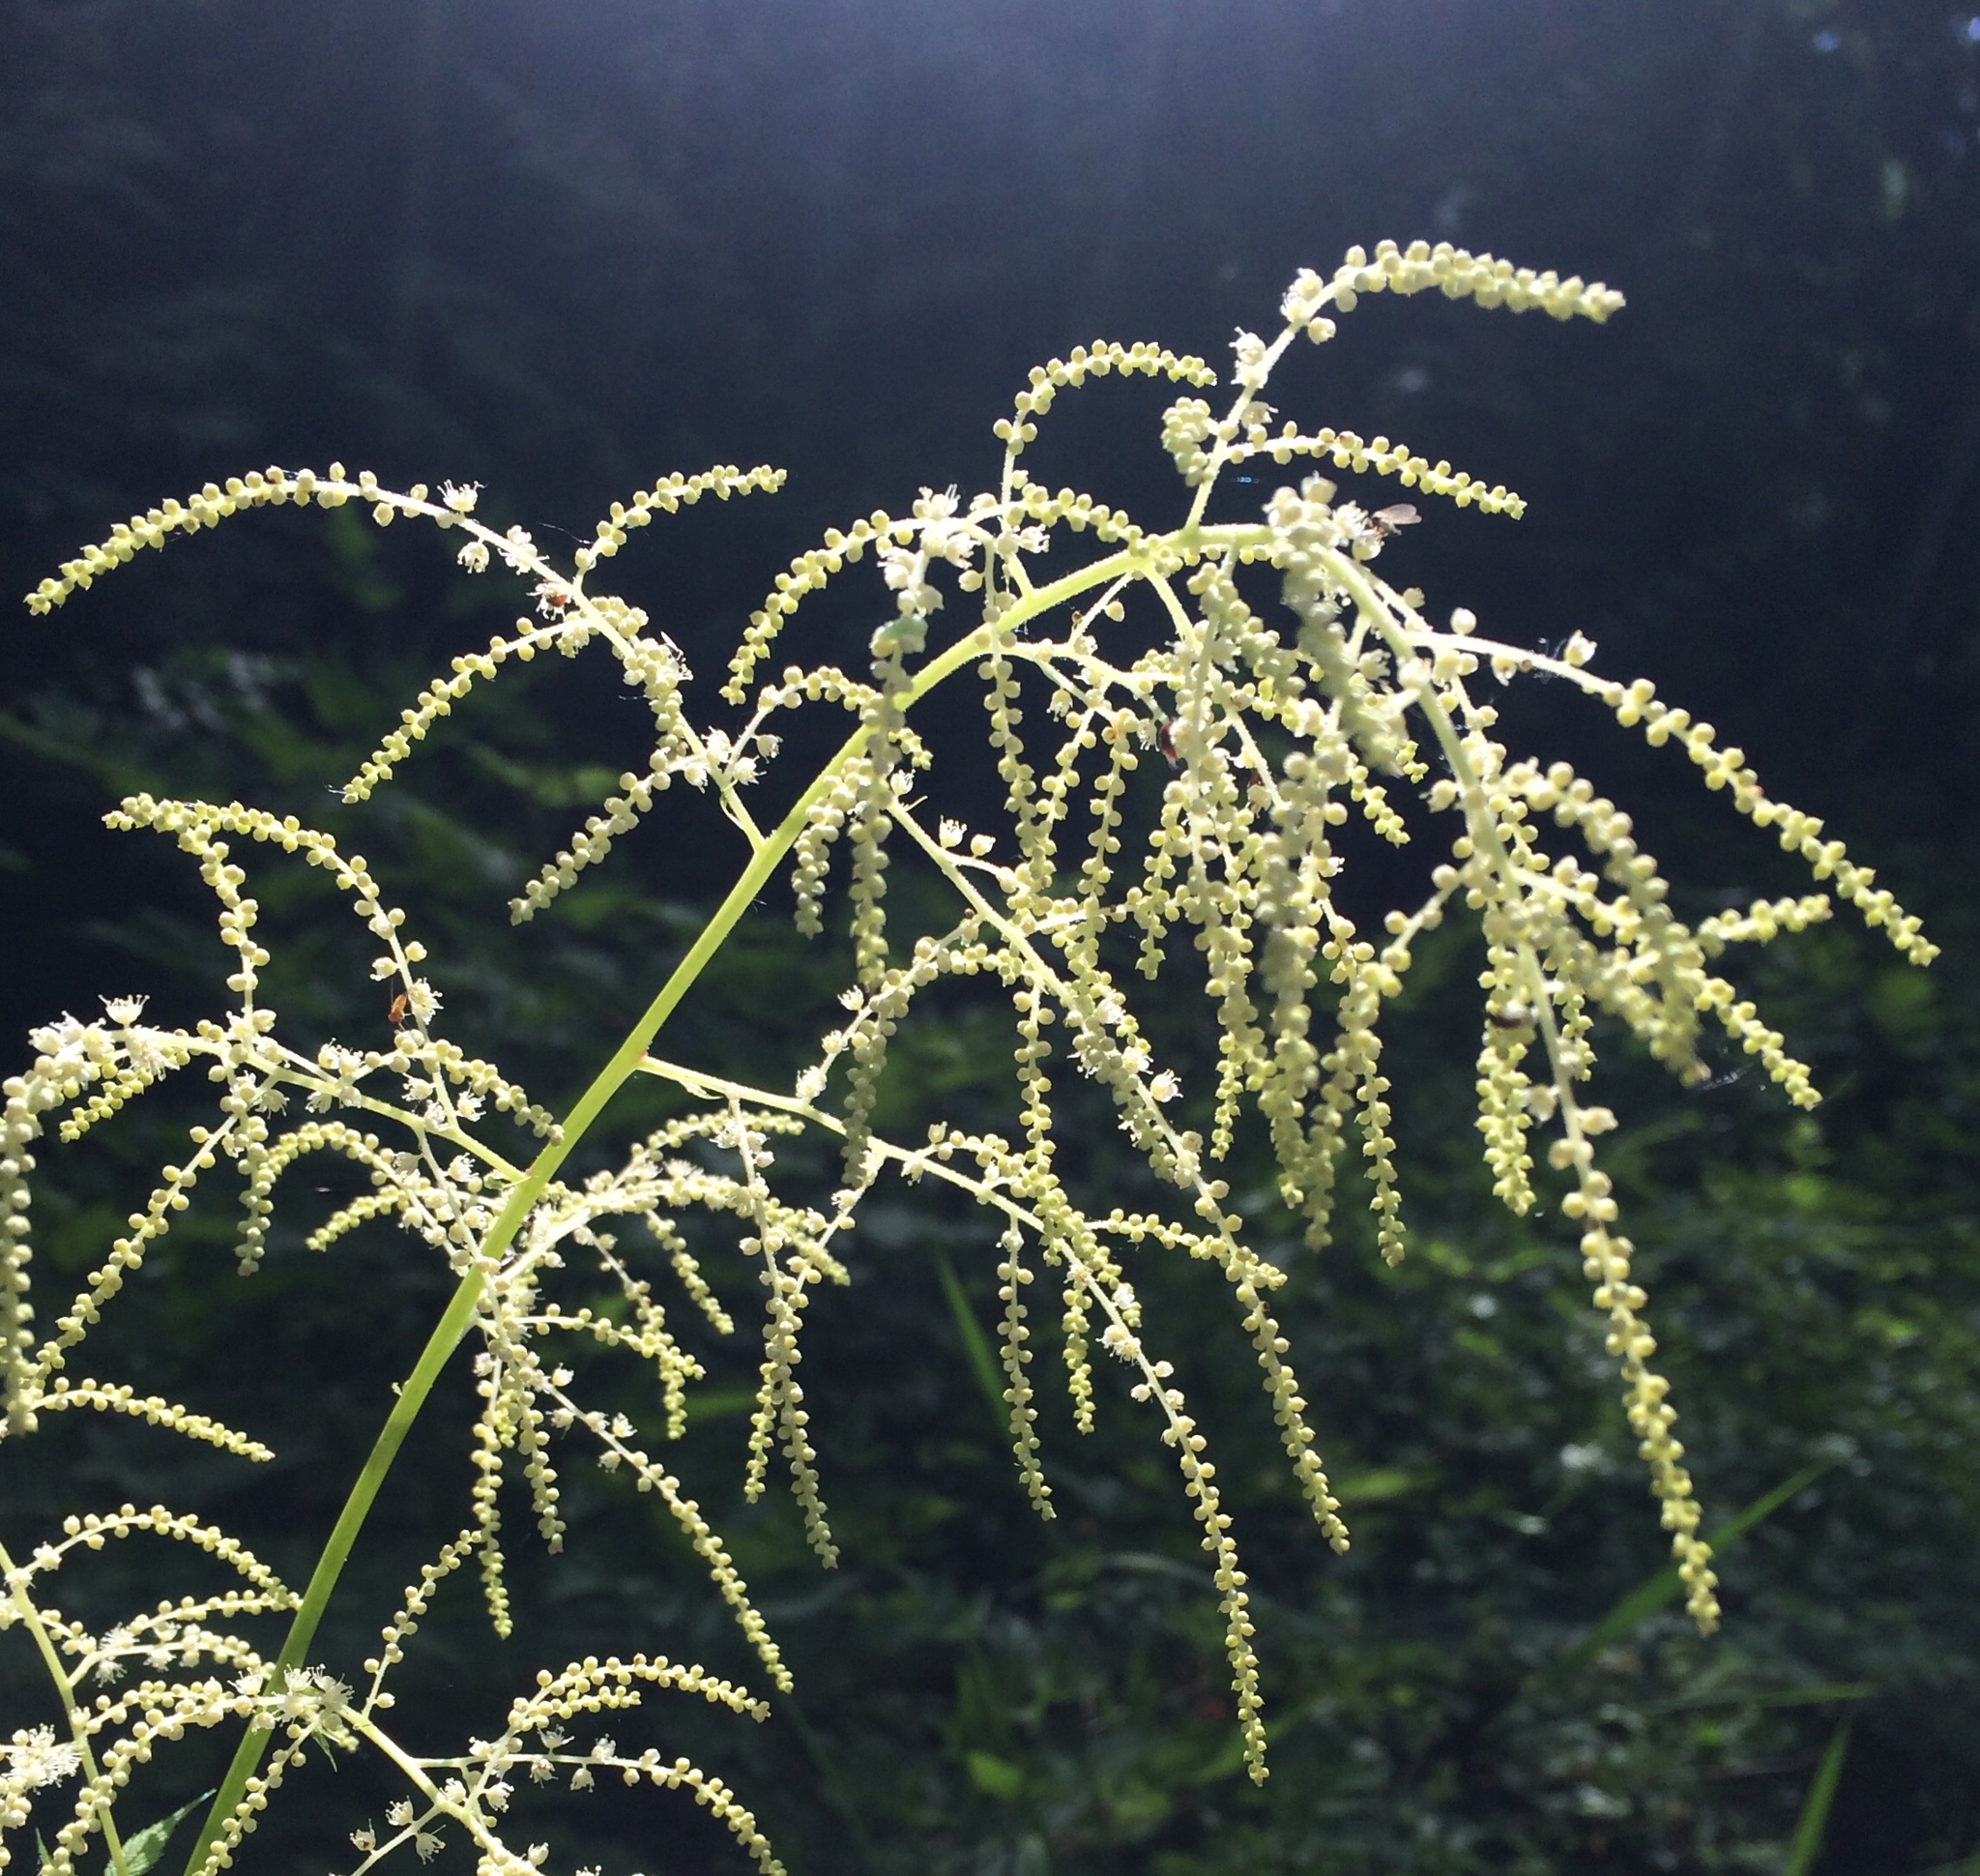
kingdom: Plantae
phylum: Tracheophyta
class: Magnoliopsida
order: Rosales
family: Rosaceae
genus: Aruncus
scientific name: Aruncus dioicus
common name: Buck's-beard
